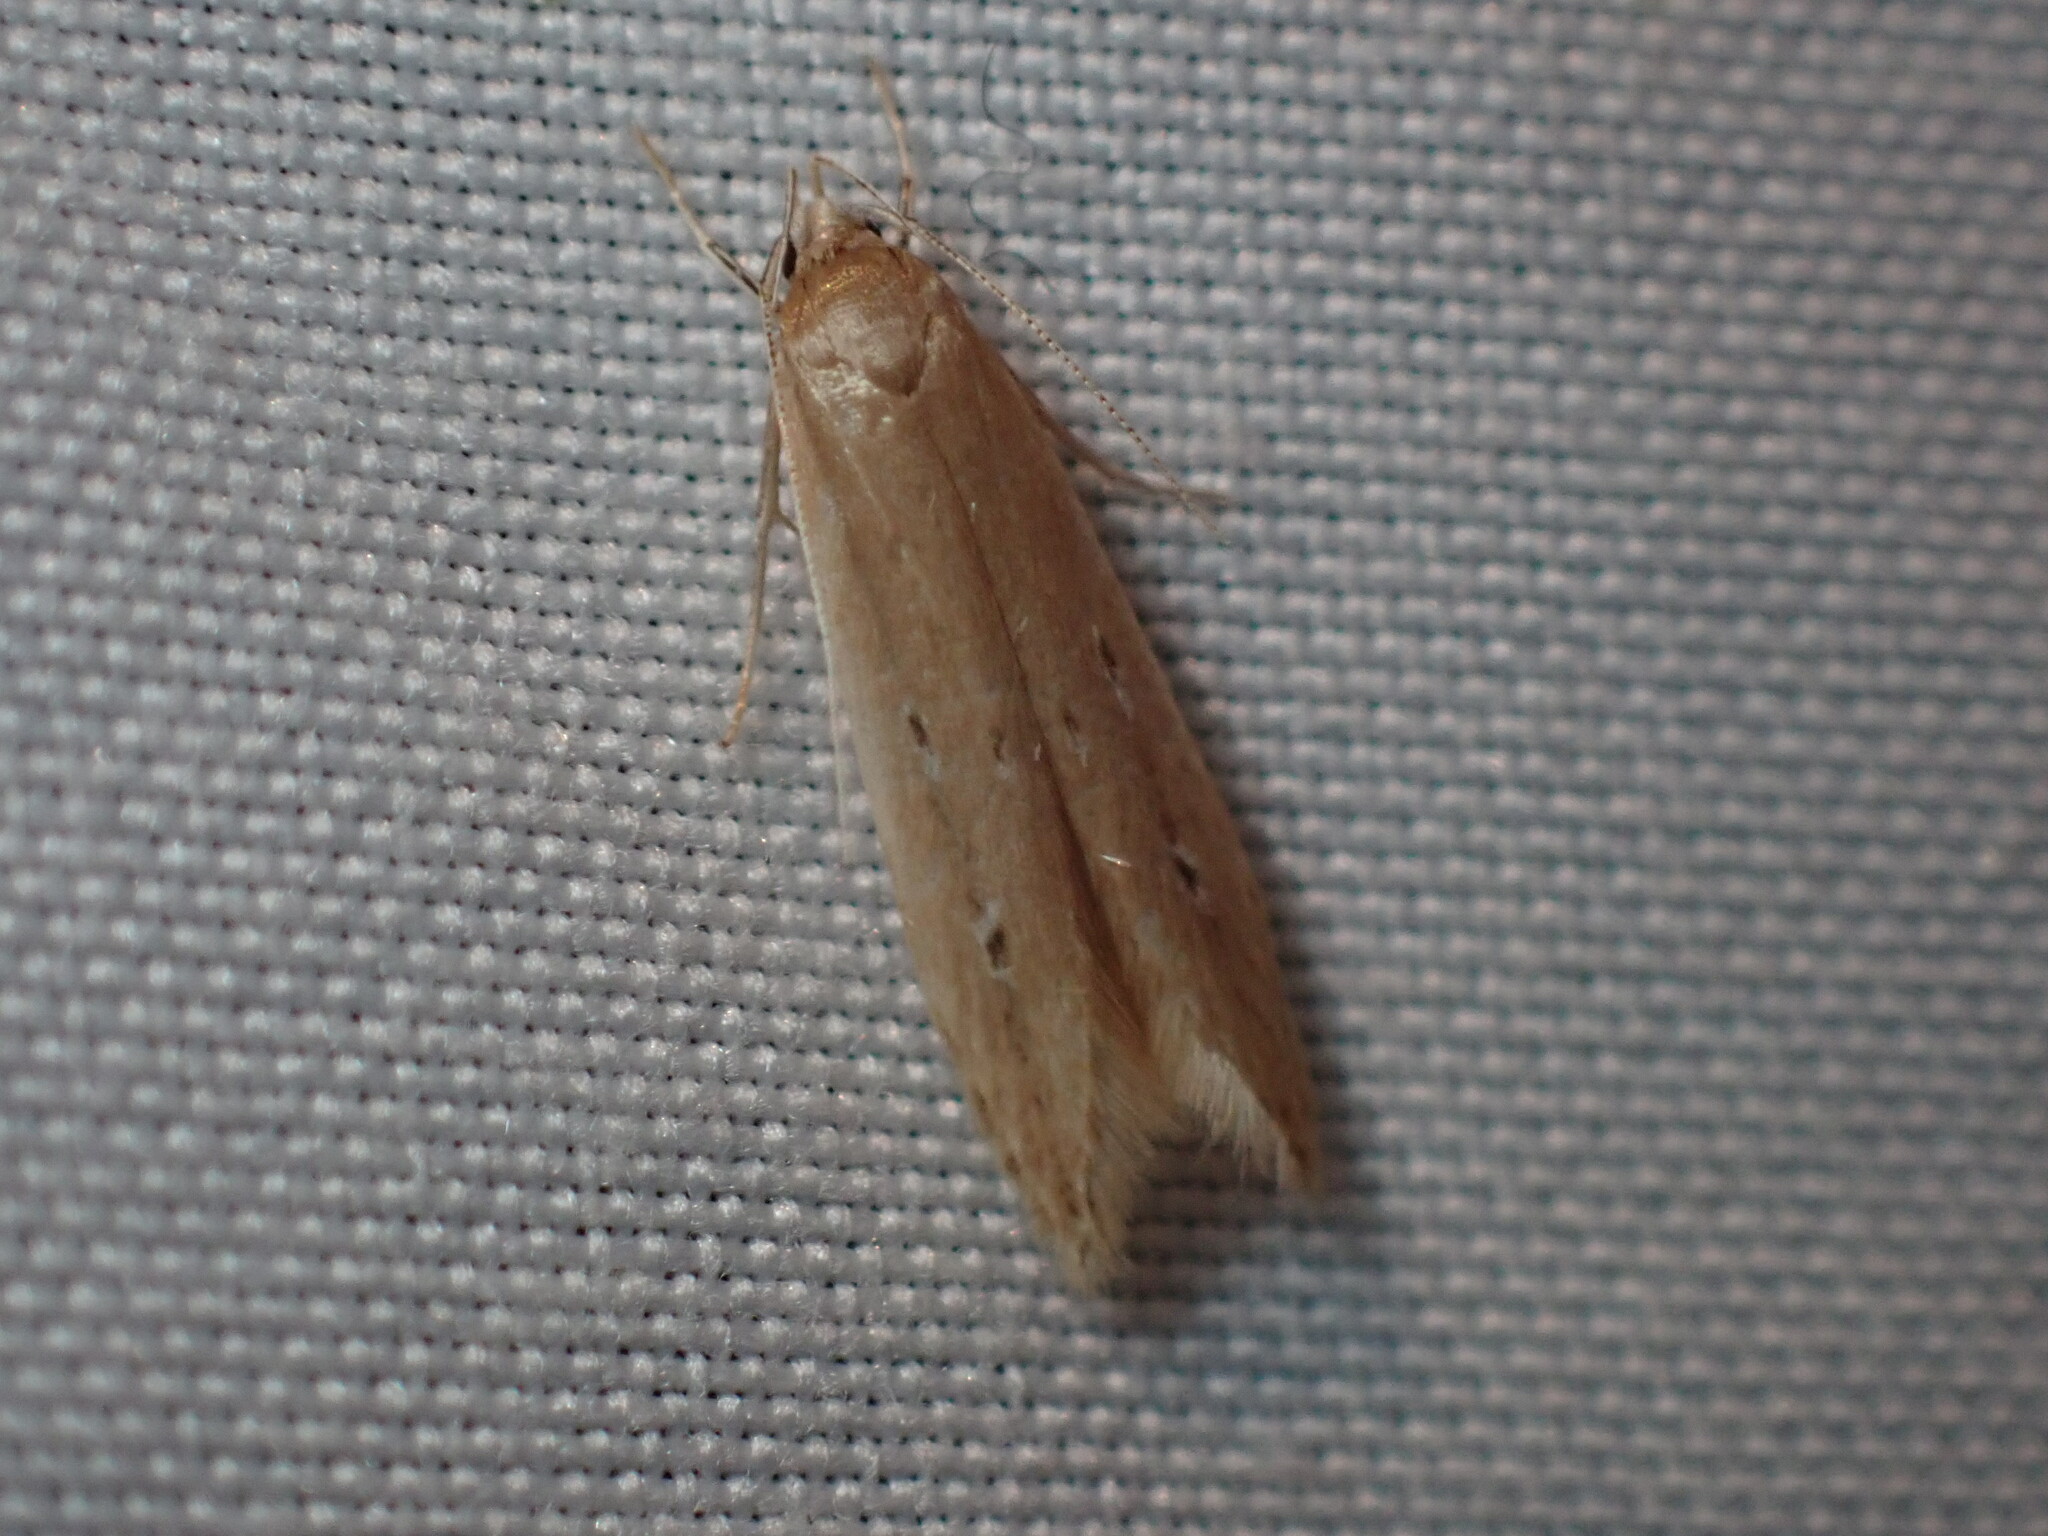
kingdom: Animalia
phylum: Arthropoda
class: Insecta
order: Lepidoptera
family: Cosmopterigidae
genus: Limnaecia
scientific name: Limnaecia phragmitella
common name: Bulrush cosmet
